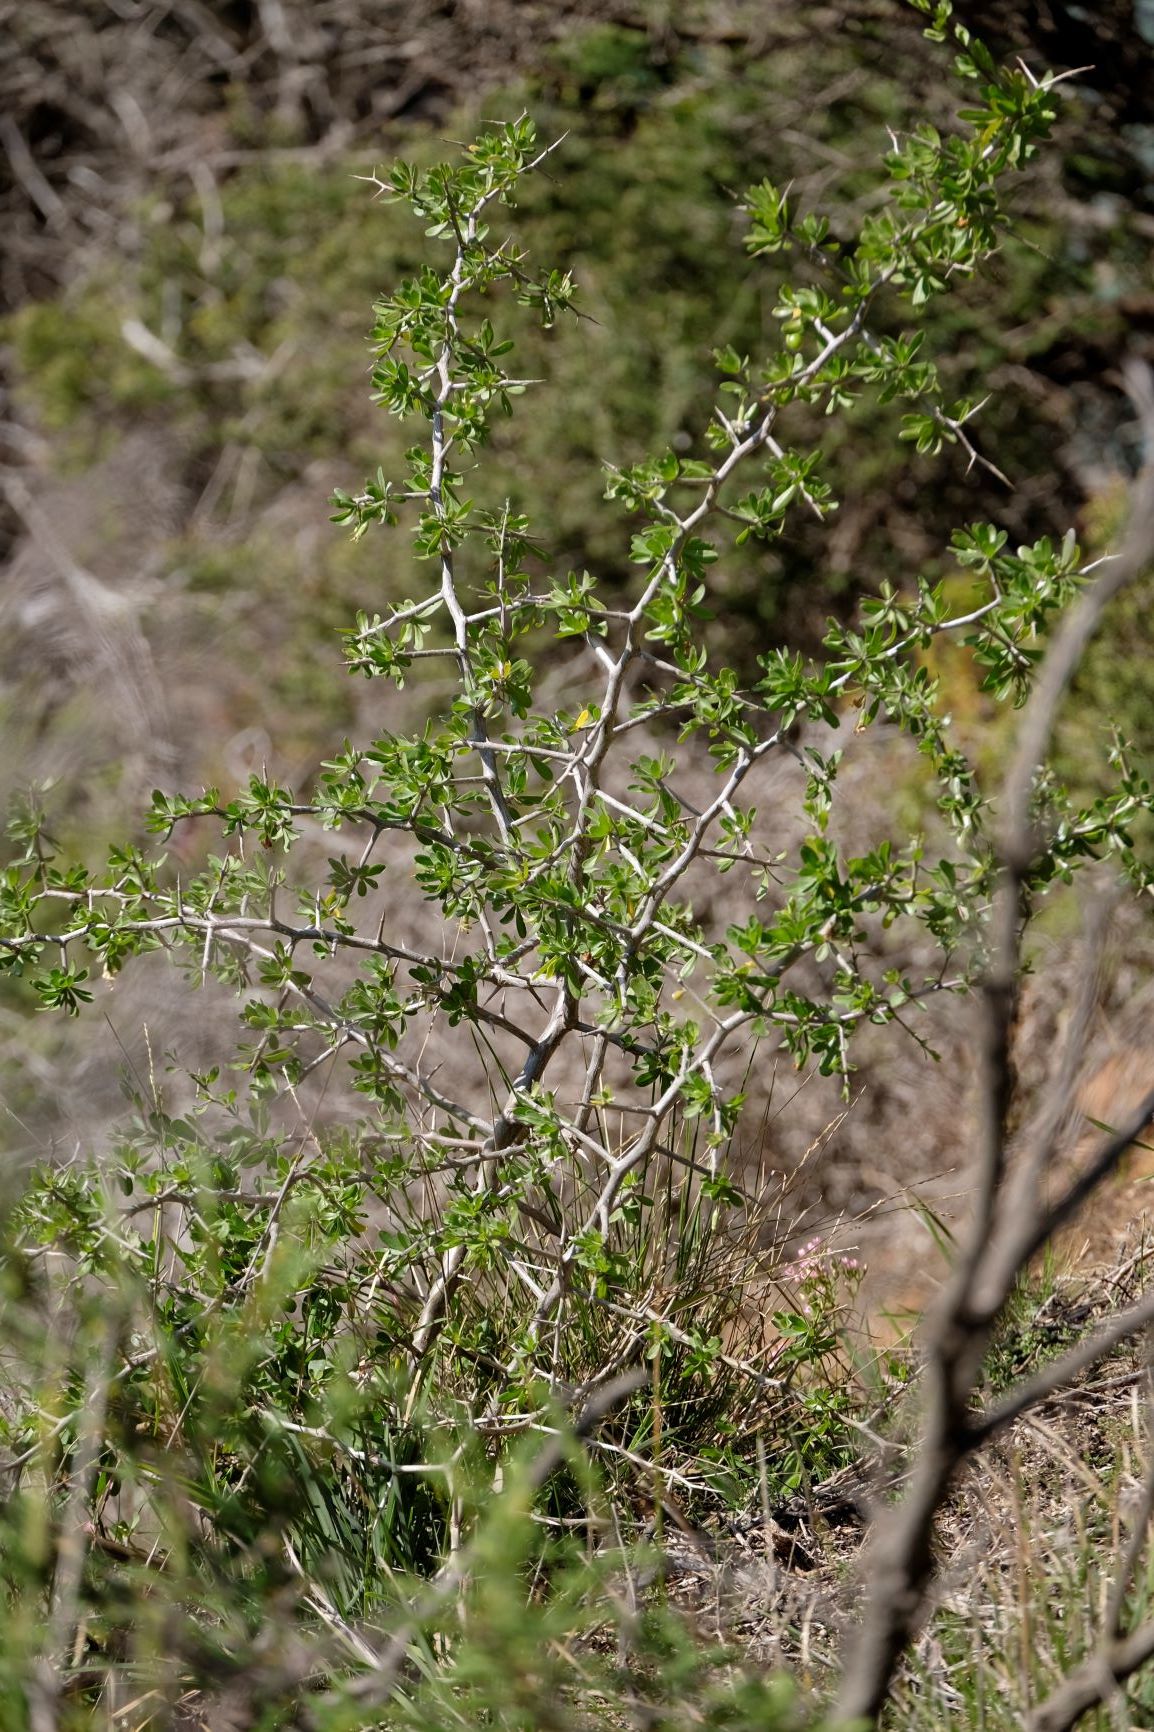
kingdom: Plantae
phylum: Tracheophyta
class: Magnoliopsida
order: Solanales
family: Solanaceae
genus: Lycium
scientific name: Lycium ferocissimum
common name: African boxthorn
